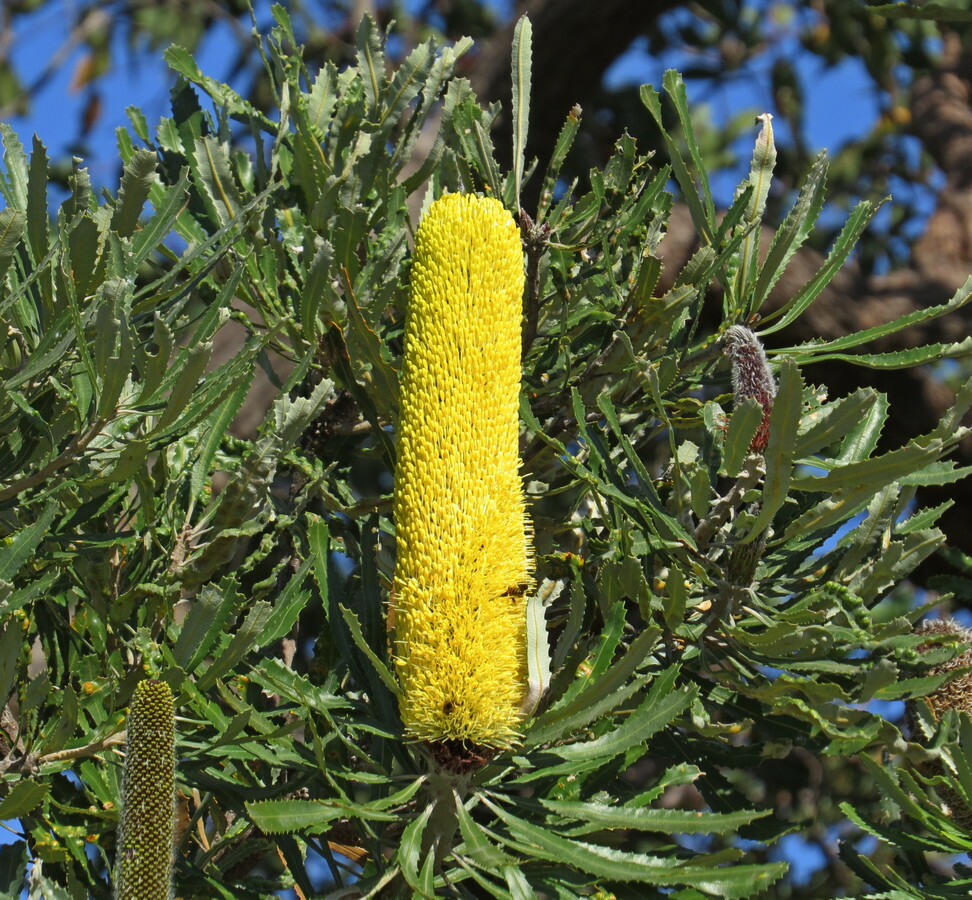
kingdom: Plantae
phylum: Tracheophyta
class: Magnoliopsida
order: Proteales
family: Proteaceae
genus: Banksia
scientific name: Banksia attenuata
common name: Coast banksia
